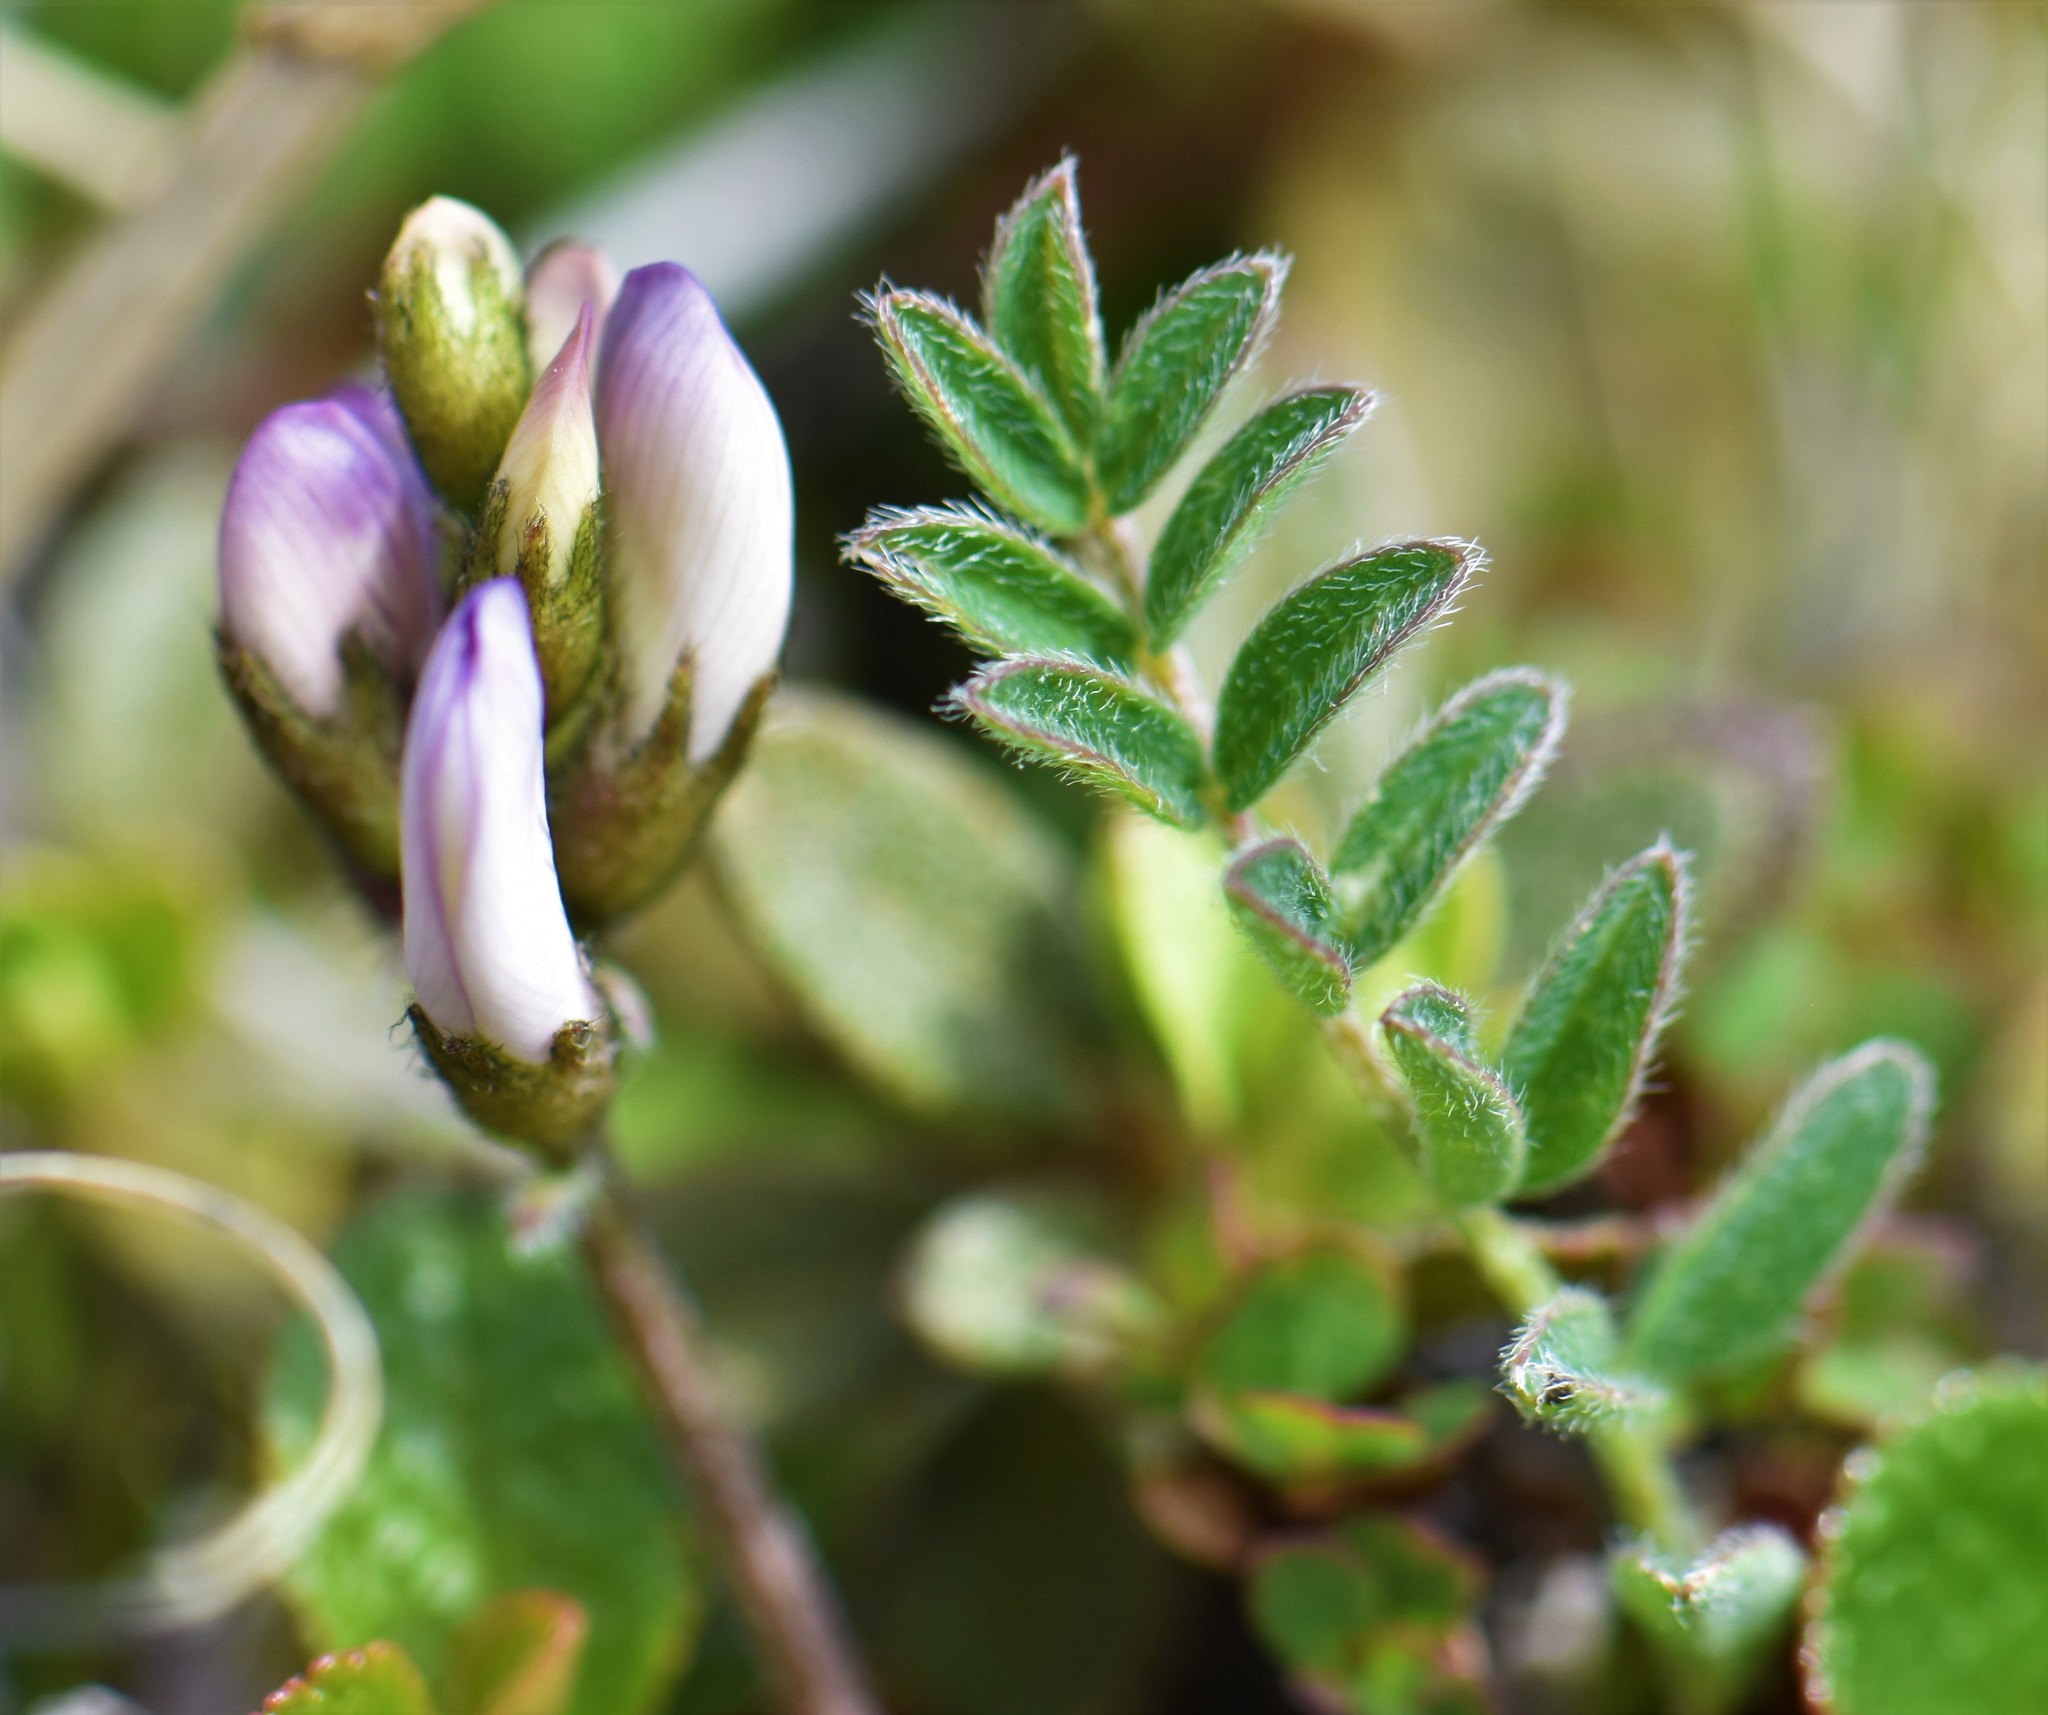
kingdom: Plantae
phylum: Tracheophyta
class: Magnoliopsida
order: Fabales
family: Fabaceae
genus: Astragalus
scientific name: Astragalus alpinus
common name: Alpine milk-vetch
